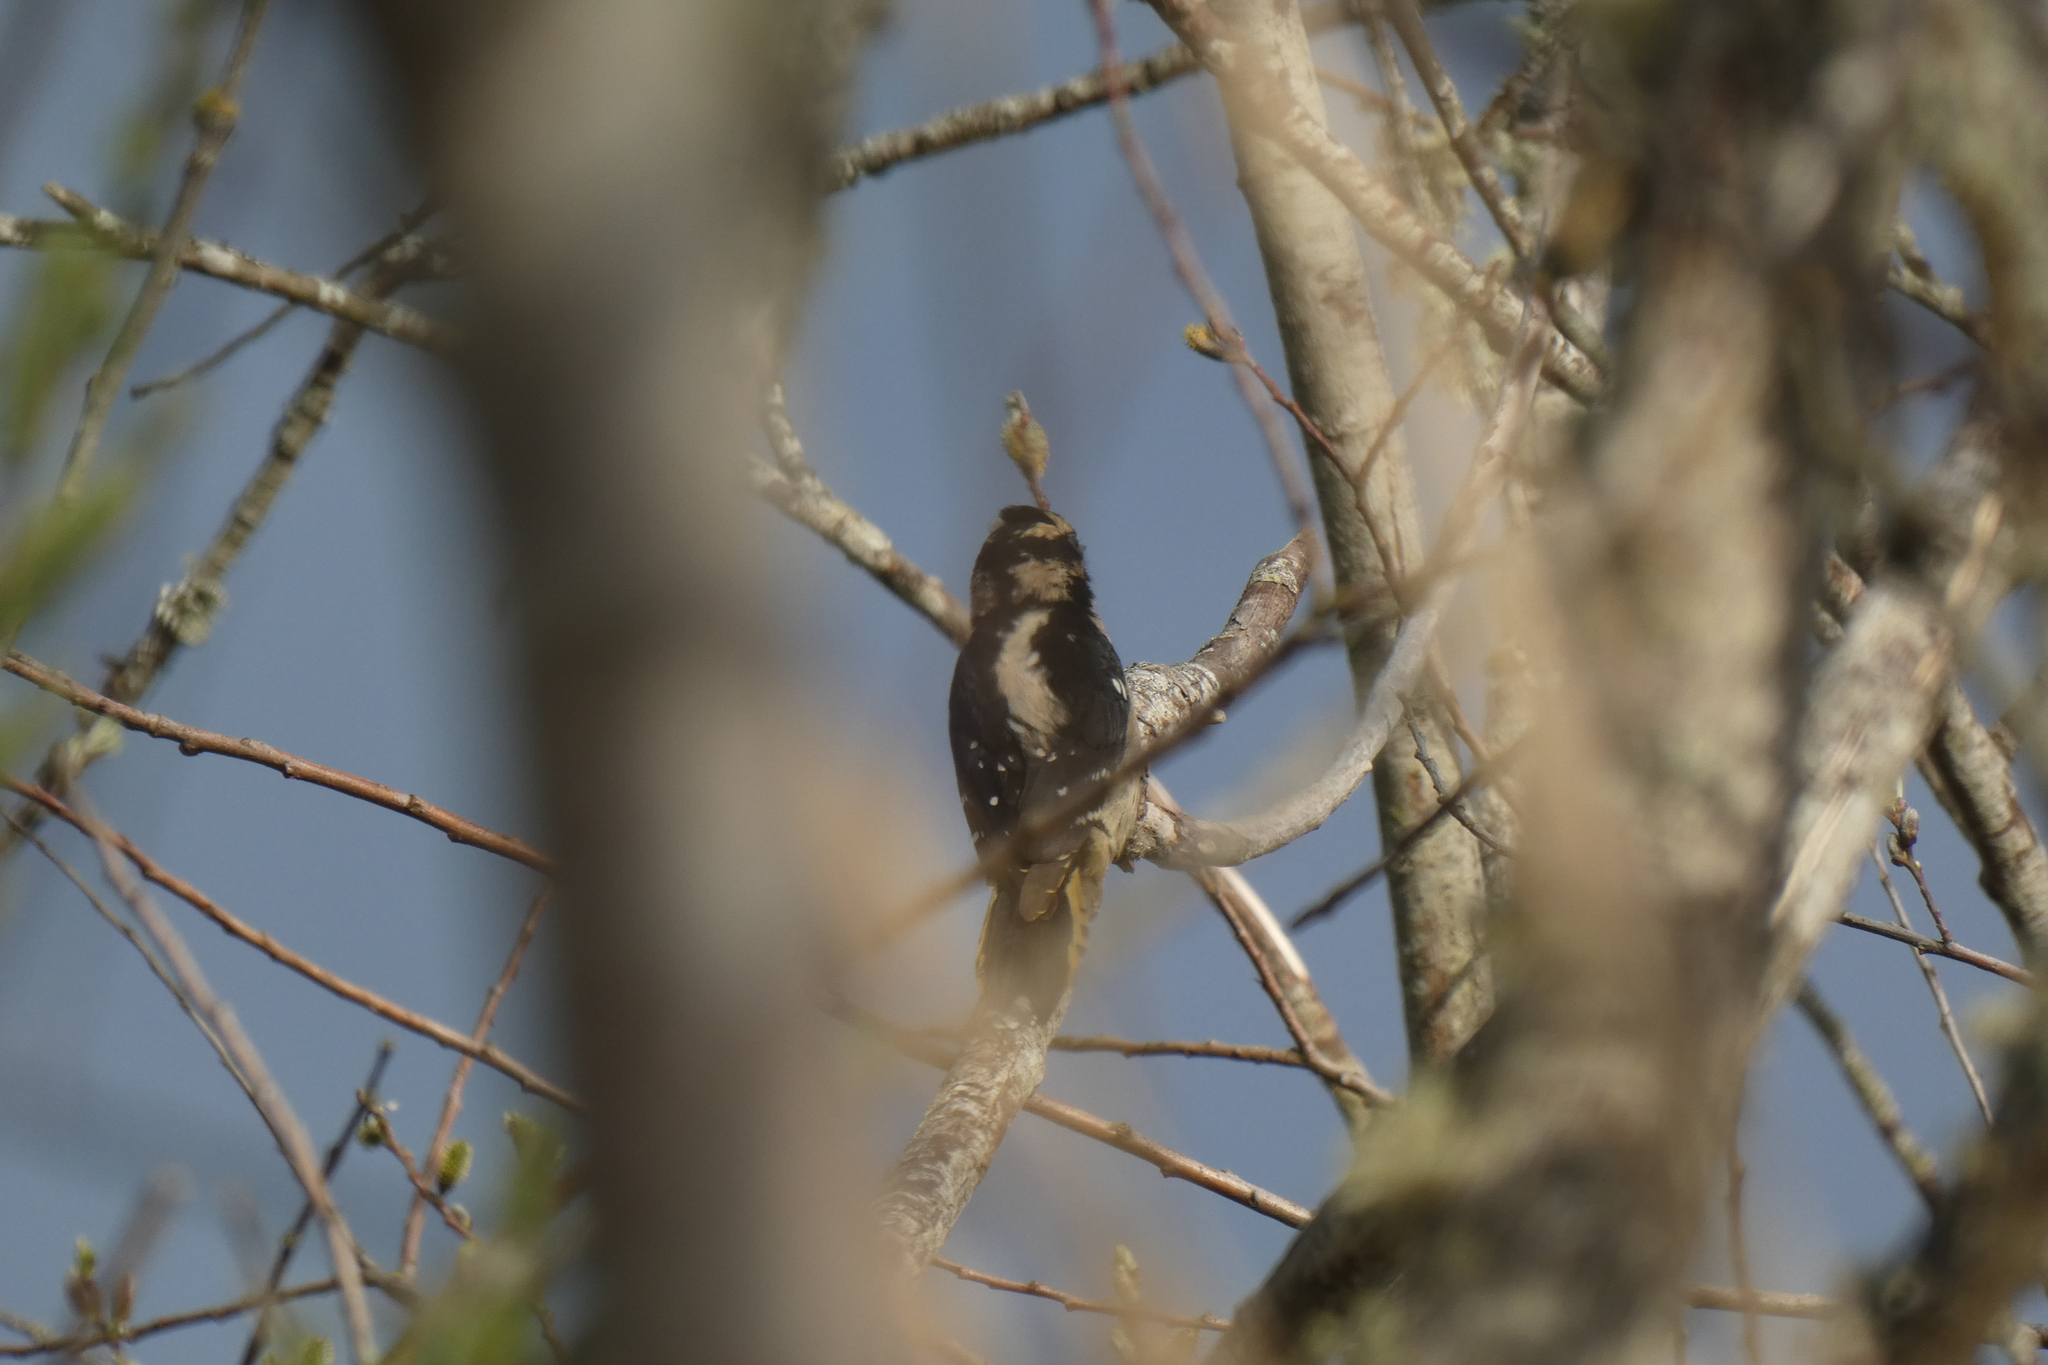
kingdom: Animalia
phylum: Chordata
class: Aves
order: Piciformes
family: Picidae
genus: Dryobates
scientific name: Dryobates pubescens
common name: Downy woodpecker
